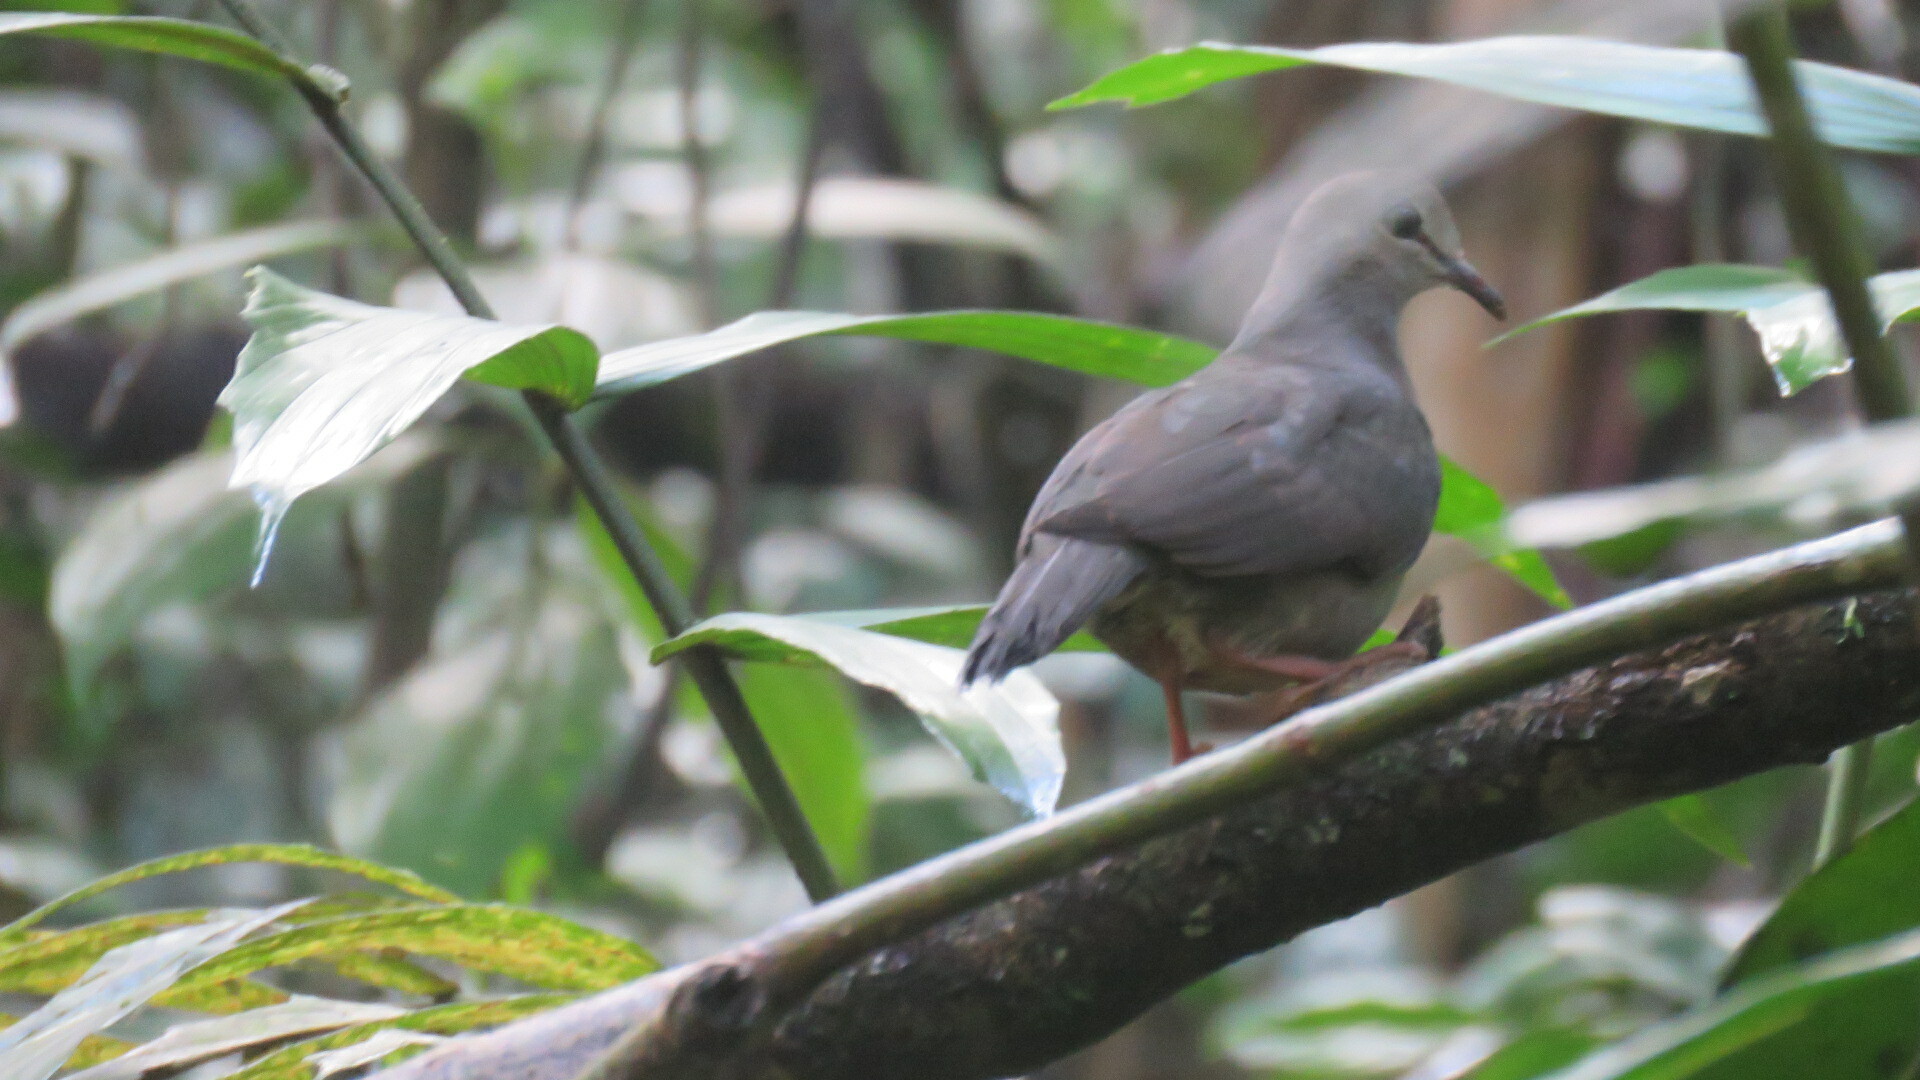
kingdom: Animalia
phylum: Chordata
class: Aves
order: Columbiformes
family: Columbidae
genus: Leptotila
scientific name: Leptotila cassinii
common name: Grey-chested dove
